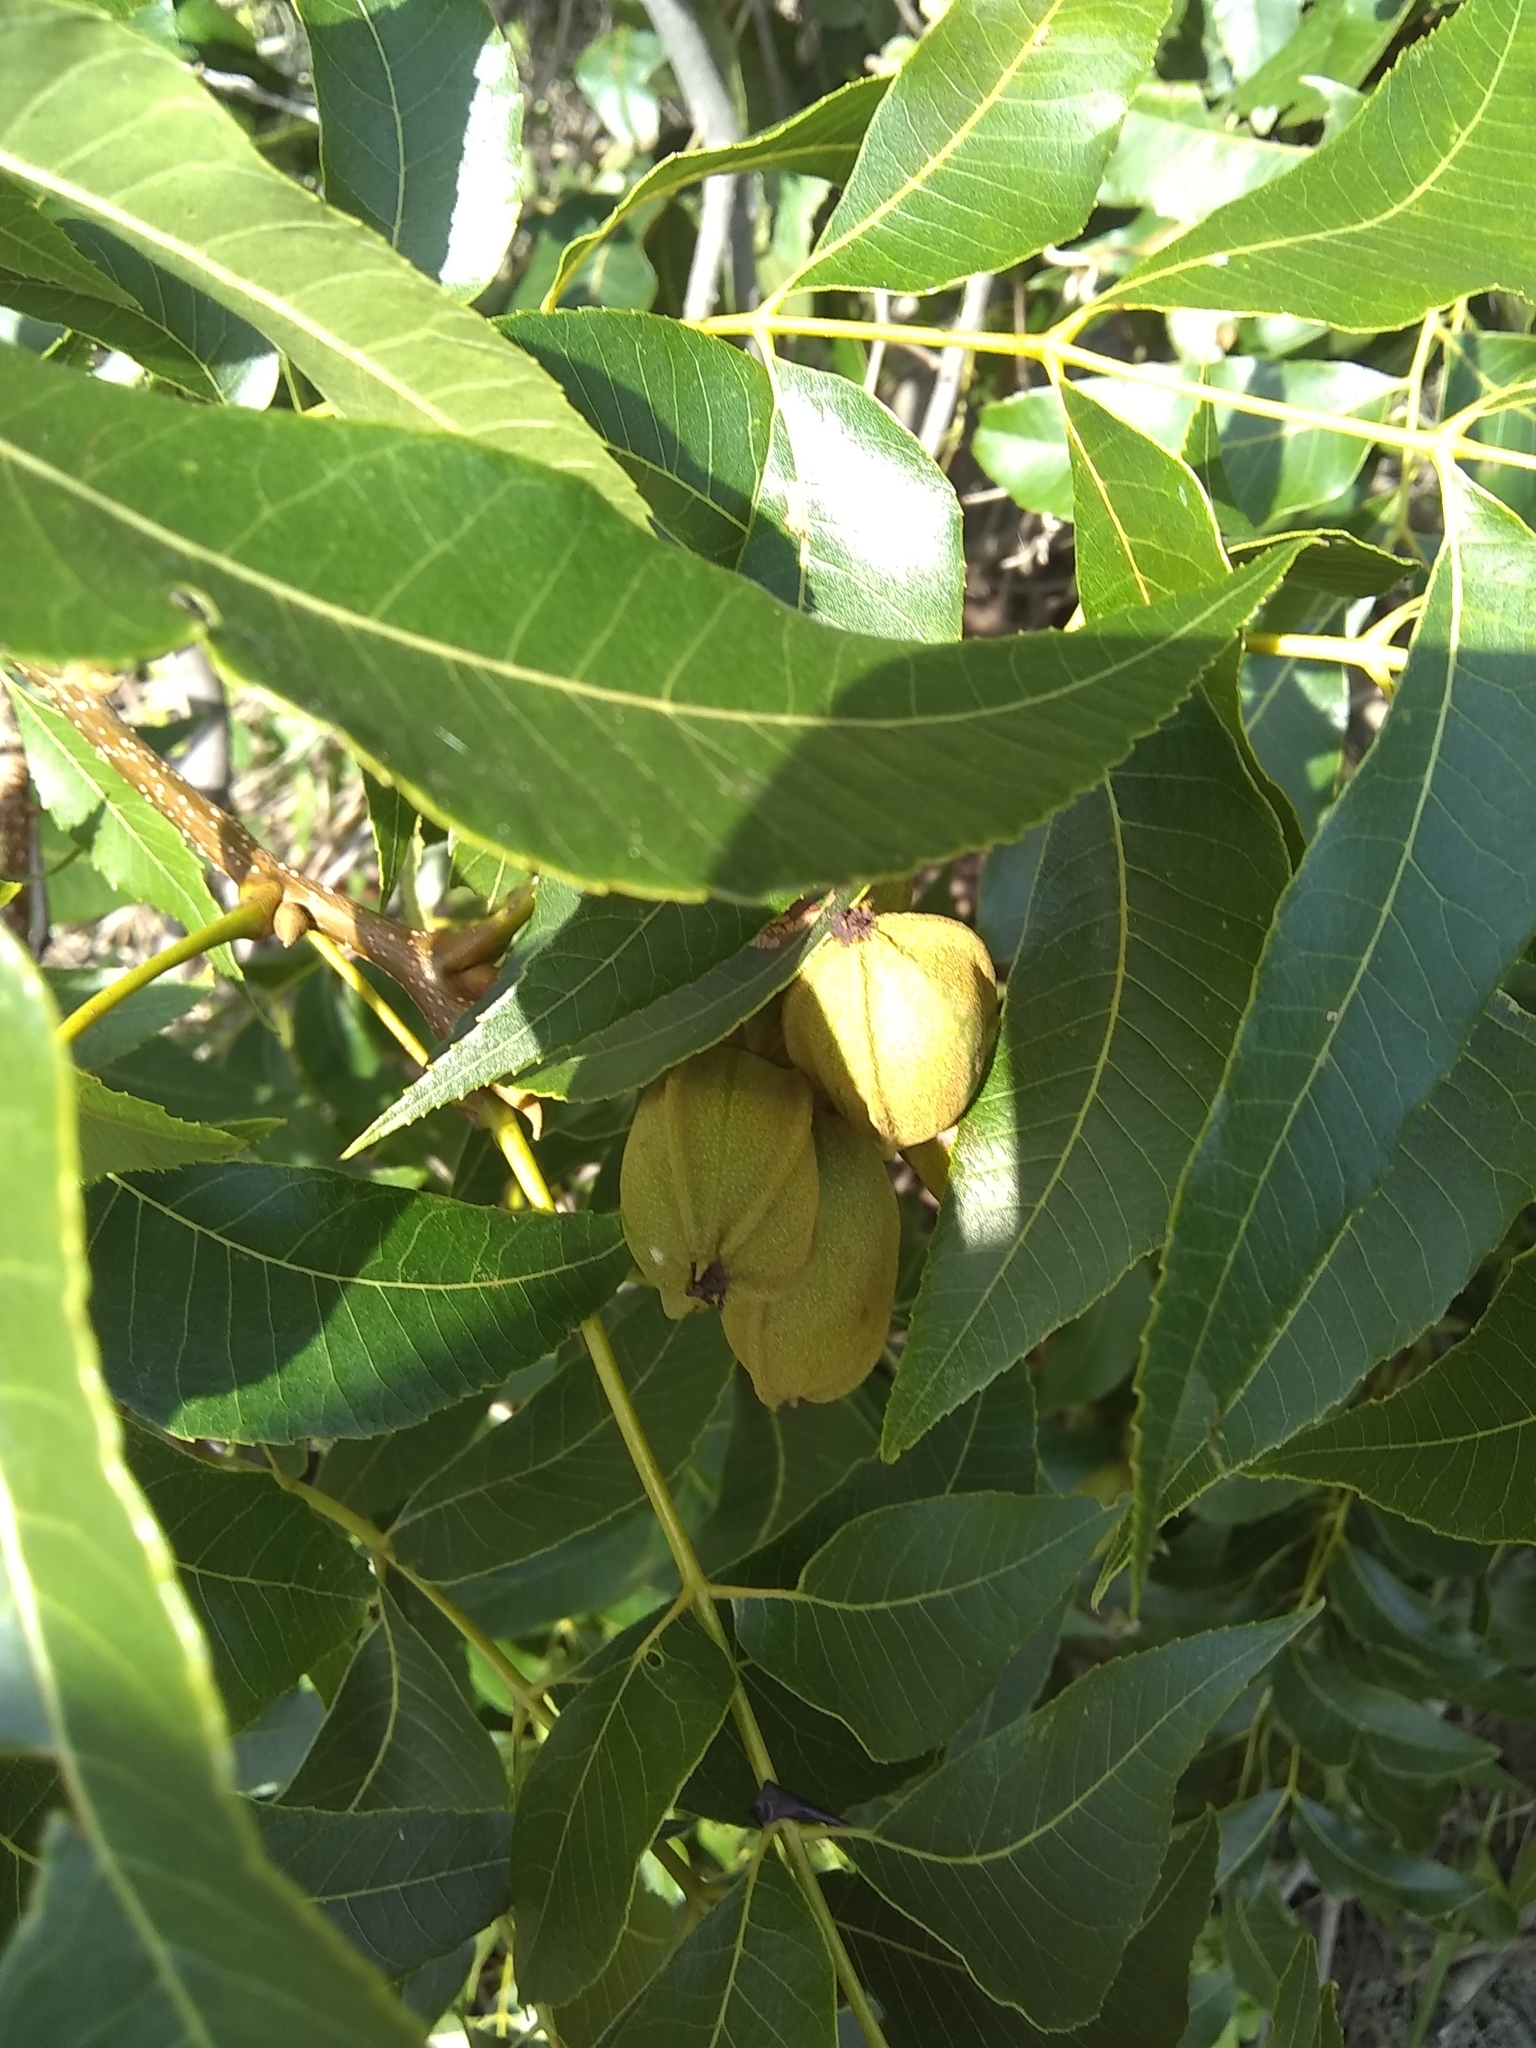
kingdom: Plantae
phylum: Tracheophyta
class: Magnoliopsida
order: Fagales
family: Juglandaceae
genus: Carya
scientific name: Carya illinoinensis
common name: Pecan
